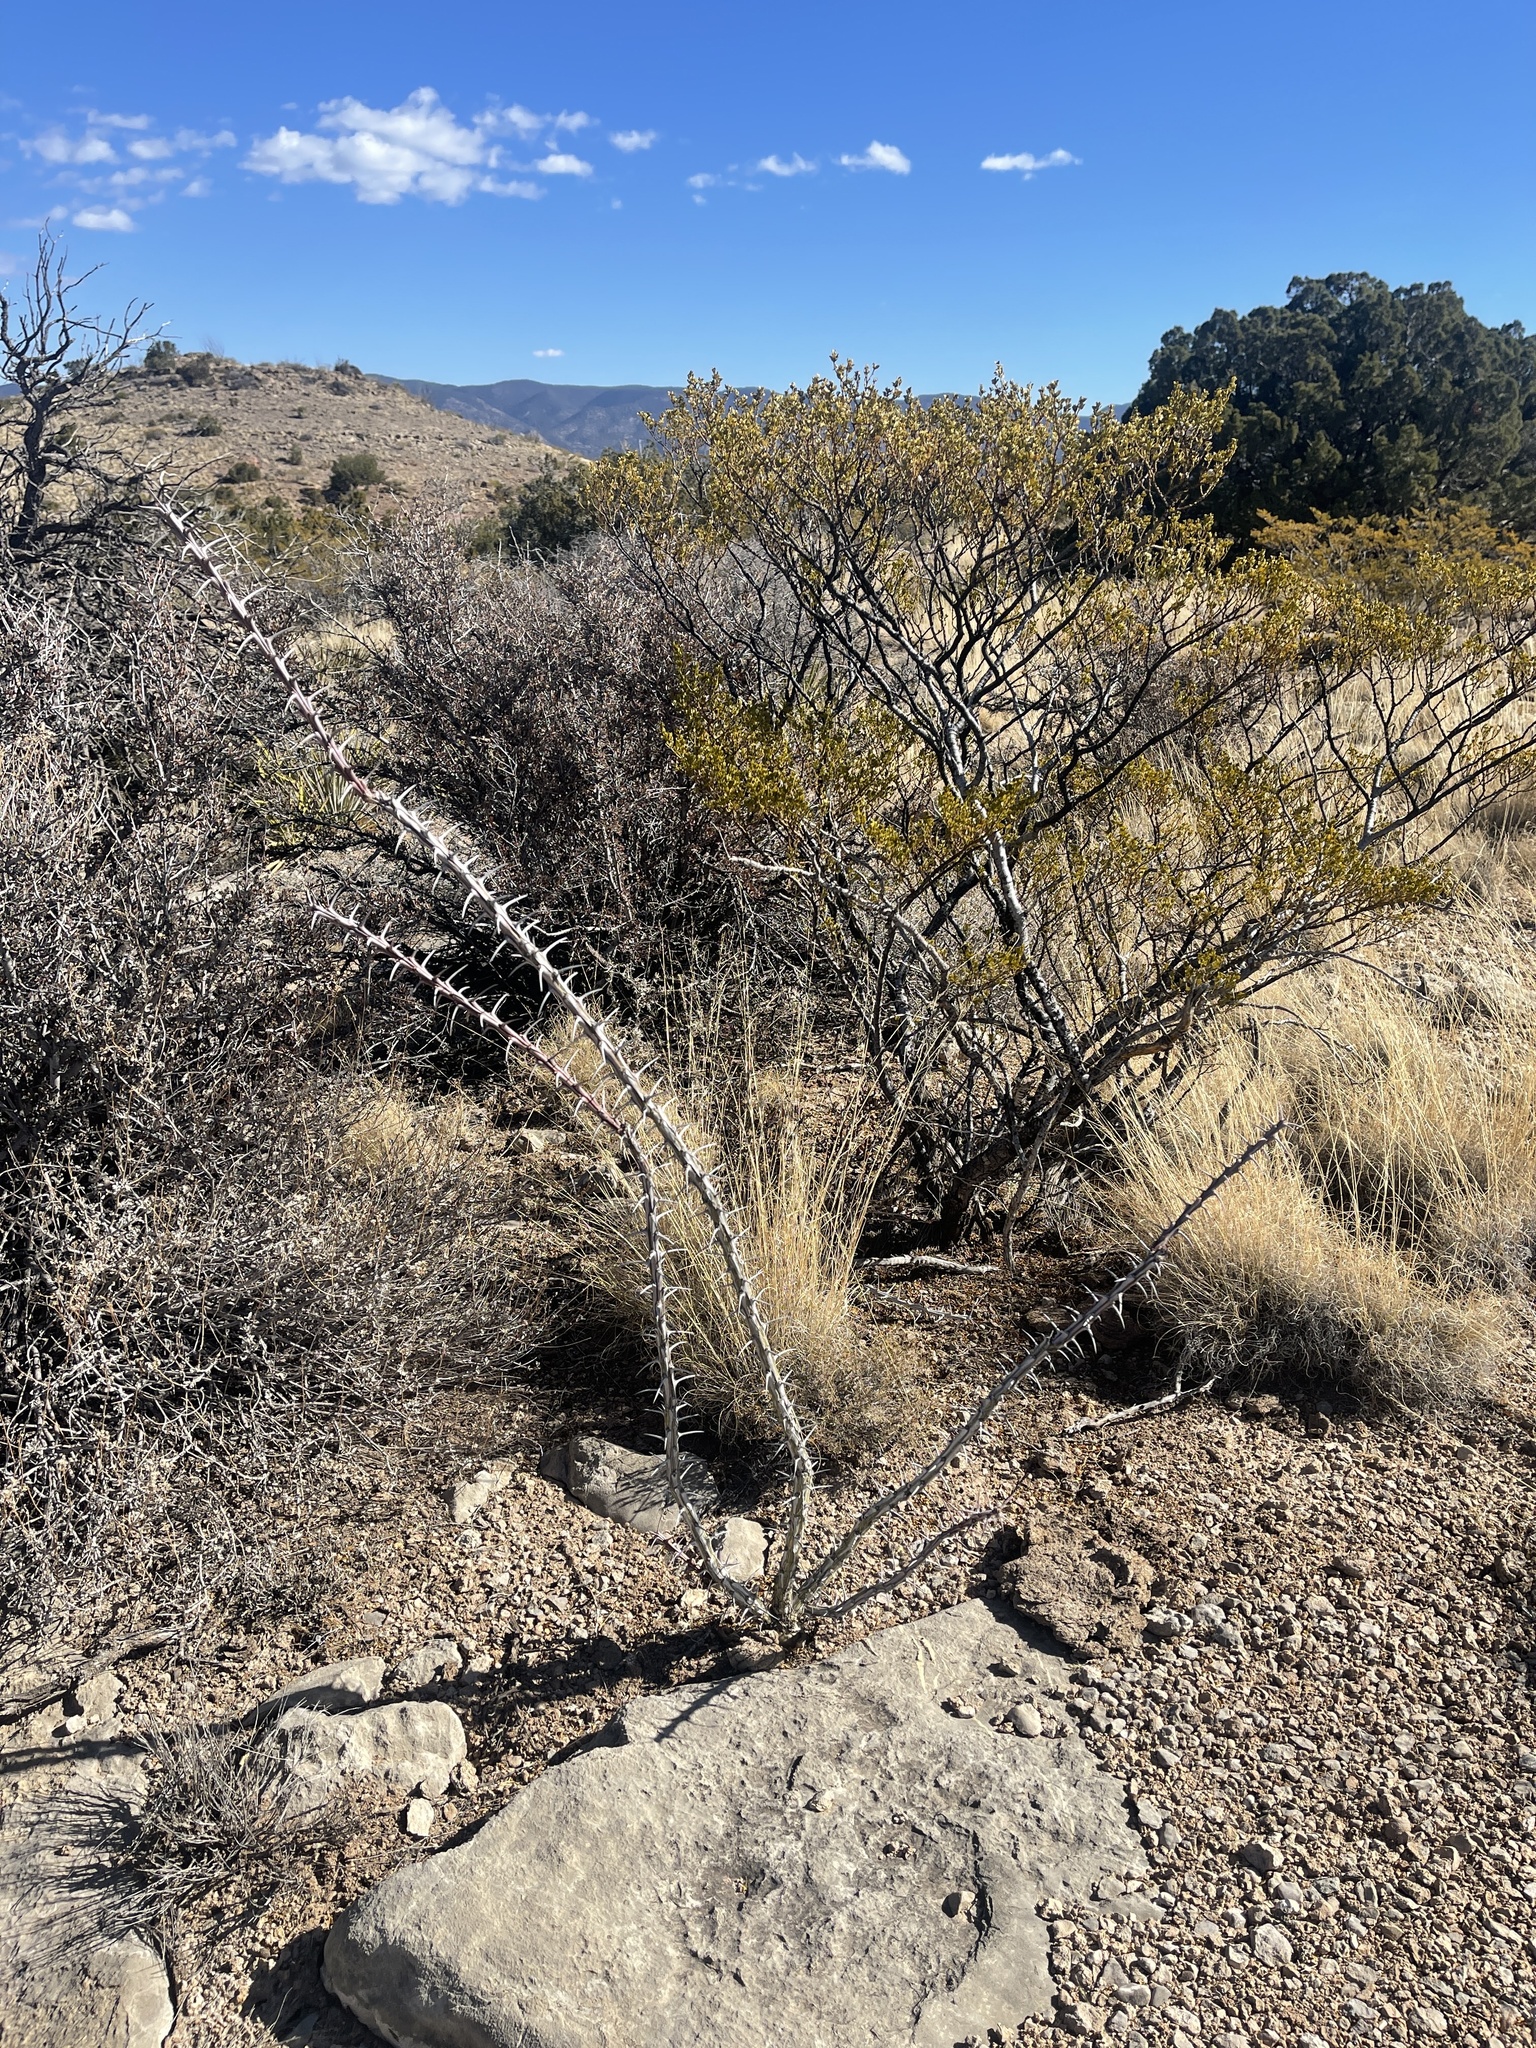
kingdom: Plantae
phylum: Tracheophyta
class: Magnoliopsida
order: Ericales
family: Fouquieriaceae
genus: Fouquieria
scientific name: Fouquieria splendens
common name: Vine-cactus
